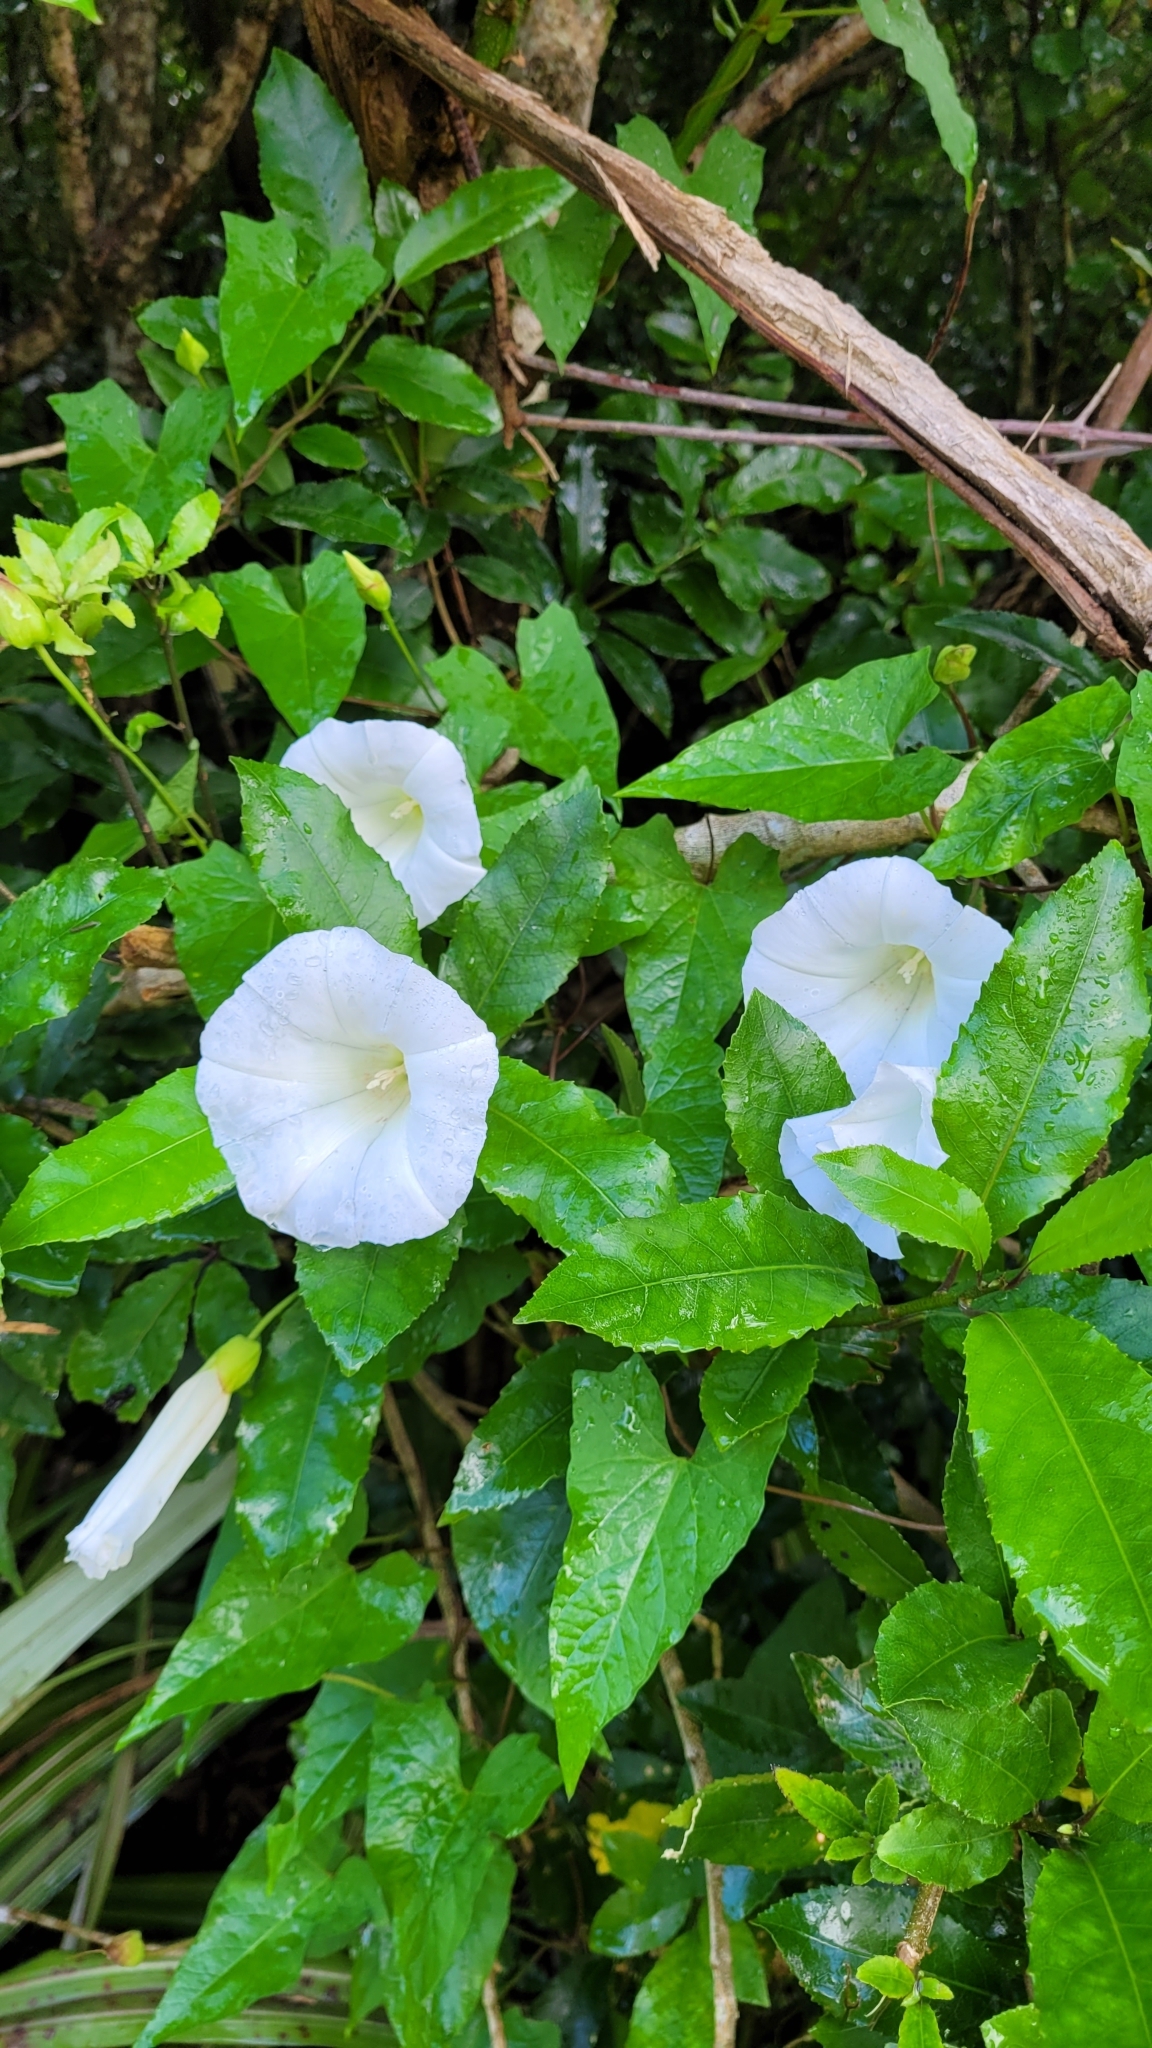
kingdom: Plantae
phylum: Tracheophyta
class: Magnoliopsida
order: Solanales
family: Convolvulaceae
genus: Calystegia
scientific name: Calystegia silvatica
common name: Large bindweed
